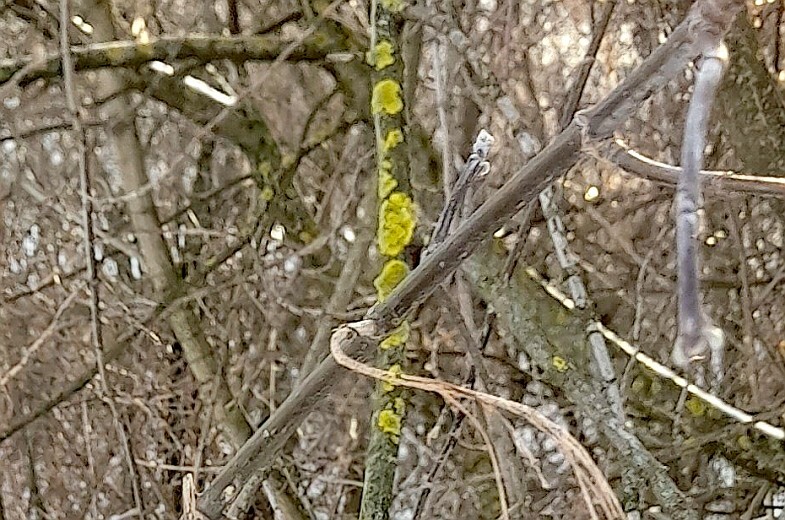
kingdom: Fungi
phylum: Ascomycota
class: Lecanoromycetes
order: Teloschistales
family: Teloschistaceae
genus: Xanthoria
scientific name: Xanthoria parietina
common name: Common orange lichen
